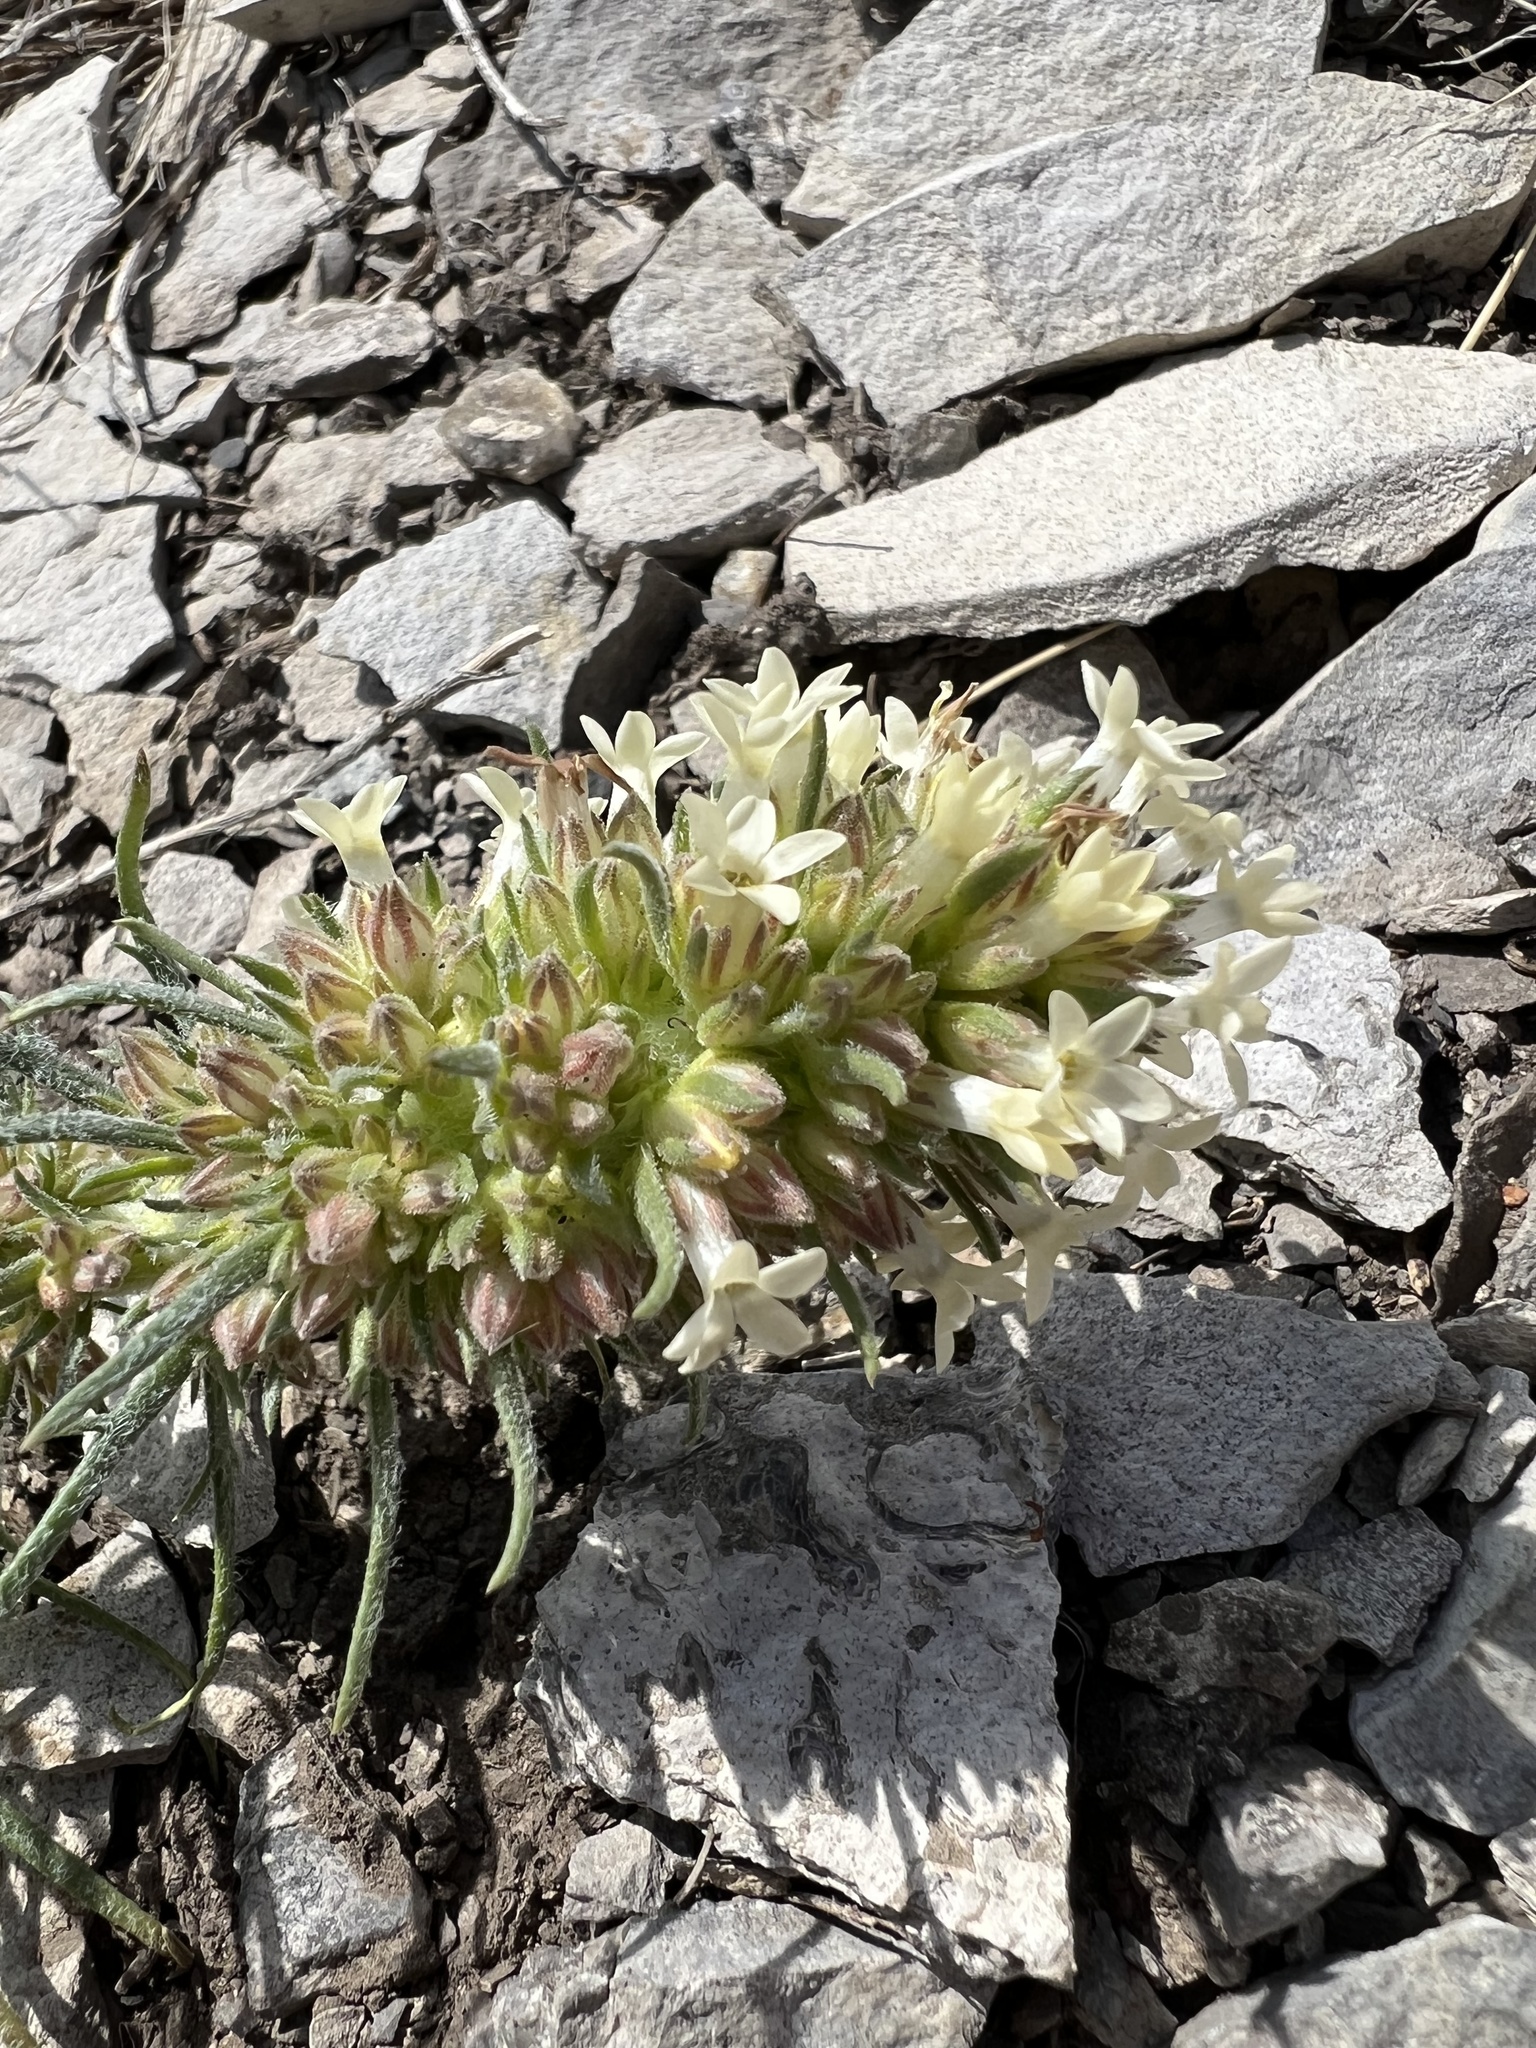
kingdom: Plantae
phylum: Tracheophyta
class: Magnoliopsida
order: Ericales
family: Polemoniaceae
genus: Ipomopsis
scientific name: Ipomopsis spicata
